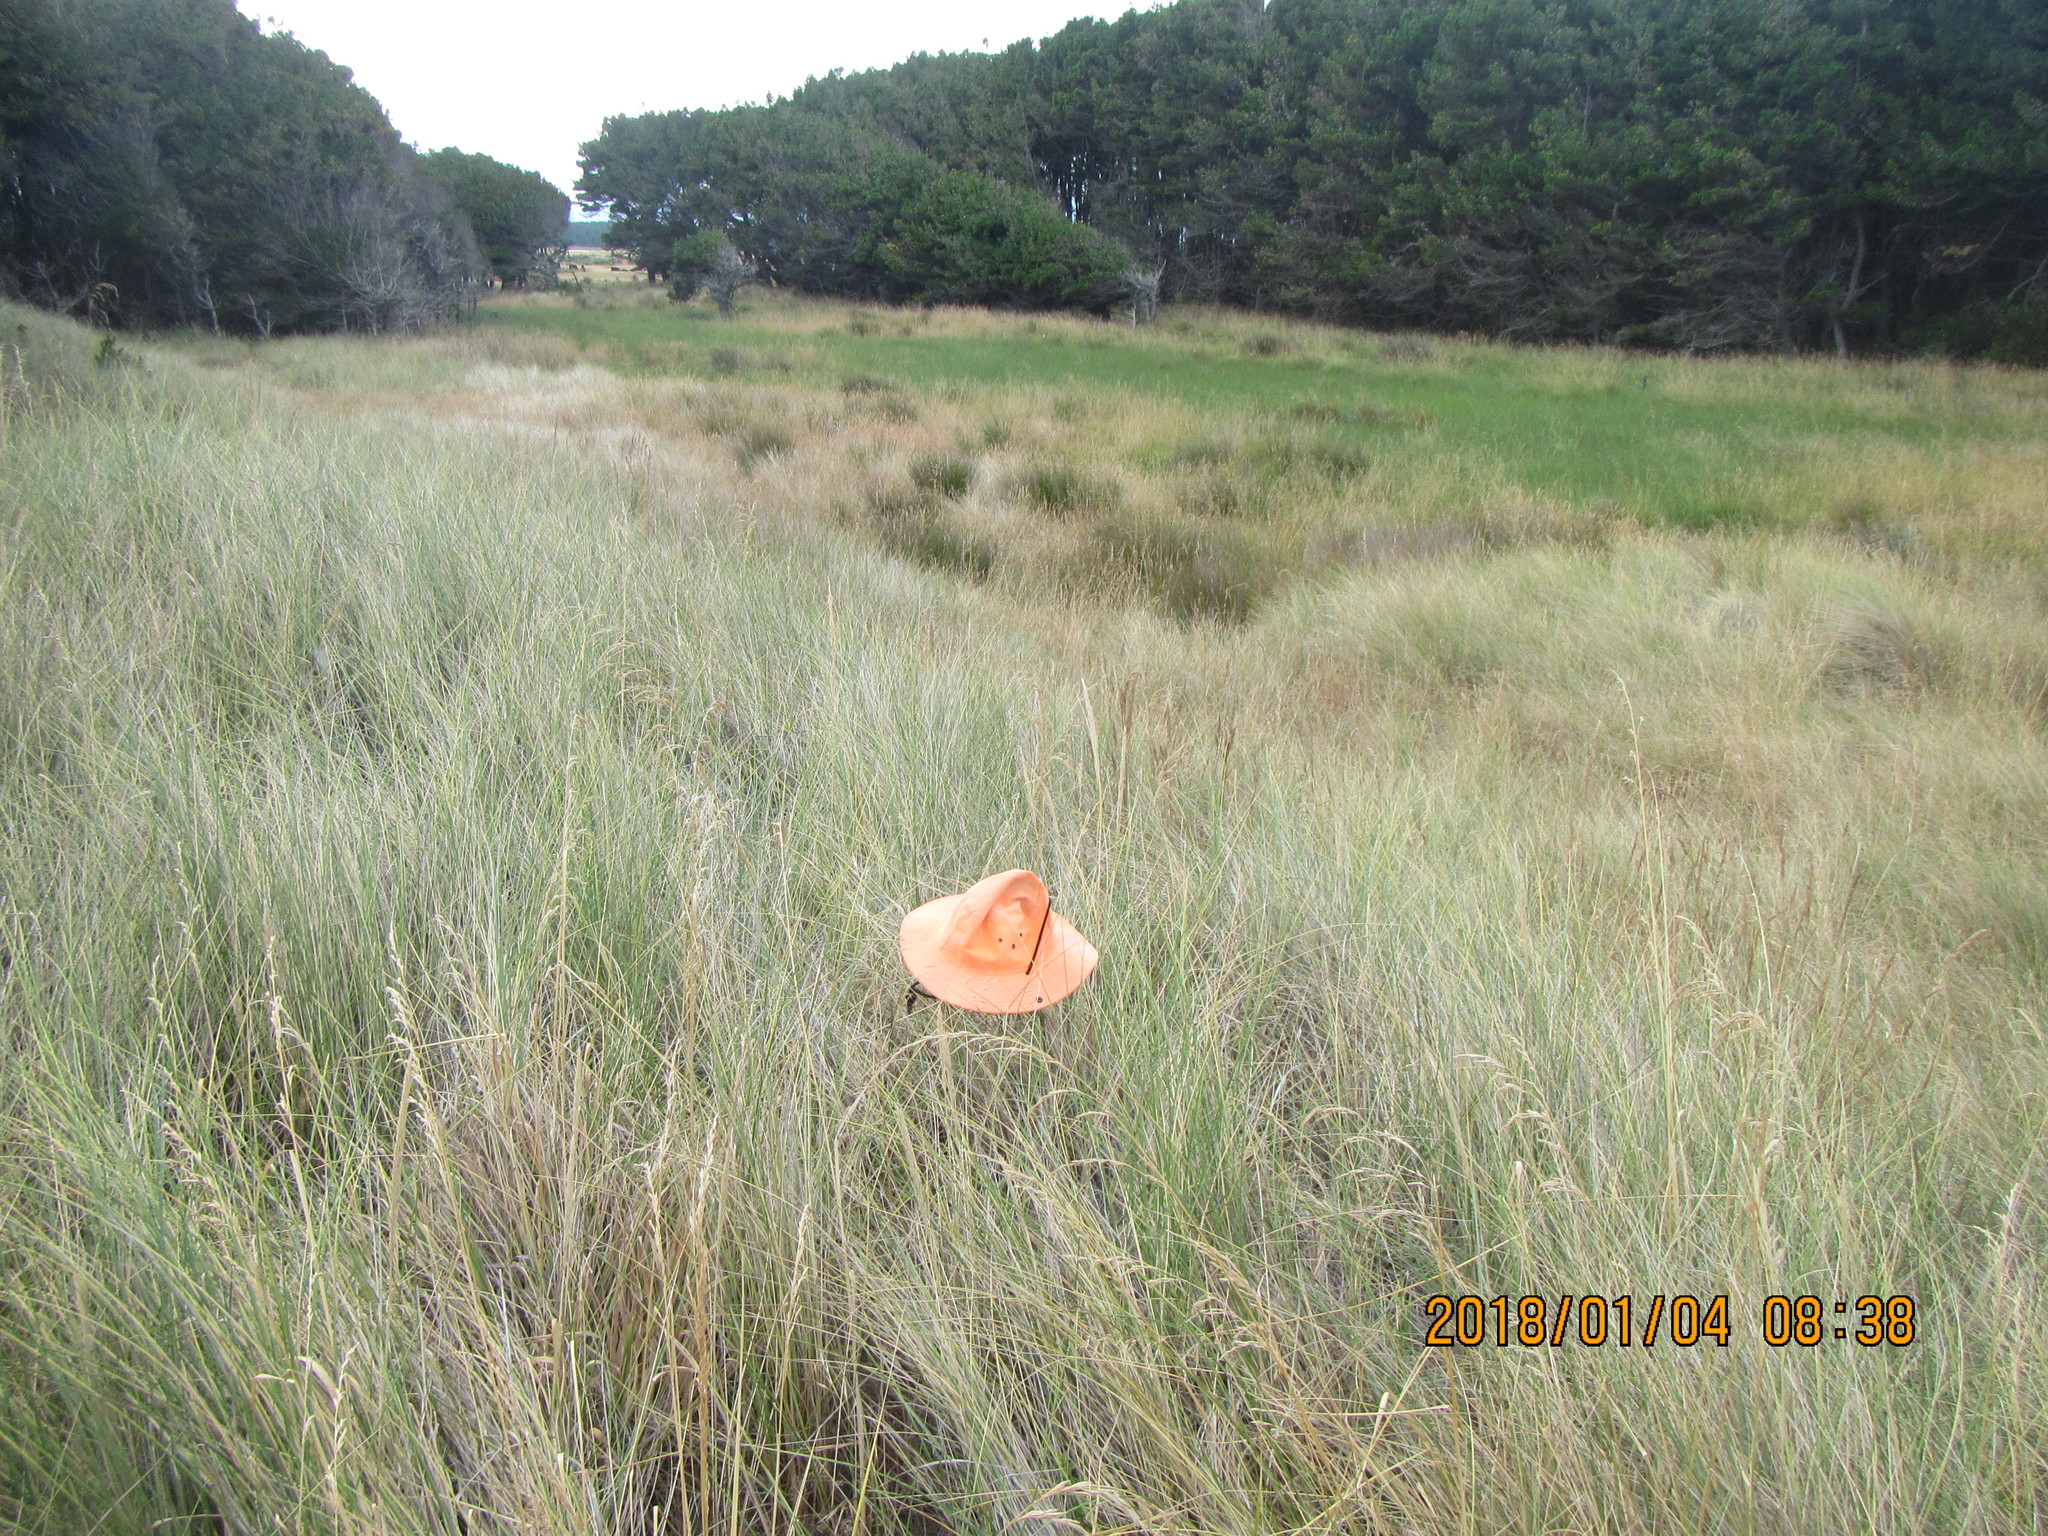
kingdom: Plantae
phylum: Tracheophyta
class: Magnoliopsida
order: Solanales
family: Convolvulaceae
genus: Calystegia
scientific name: Calystegia soldanella
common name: Sea bindweed
